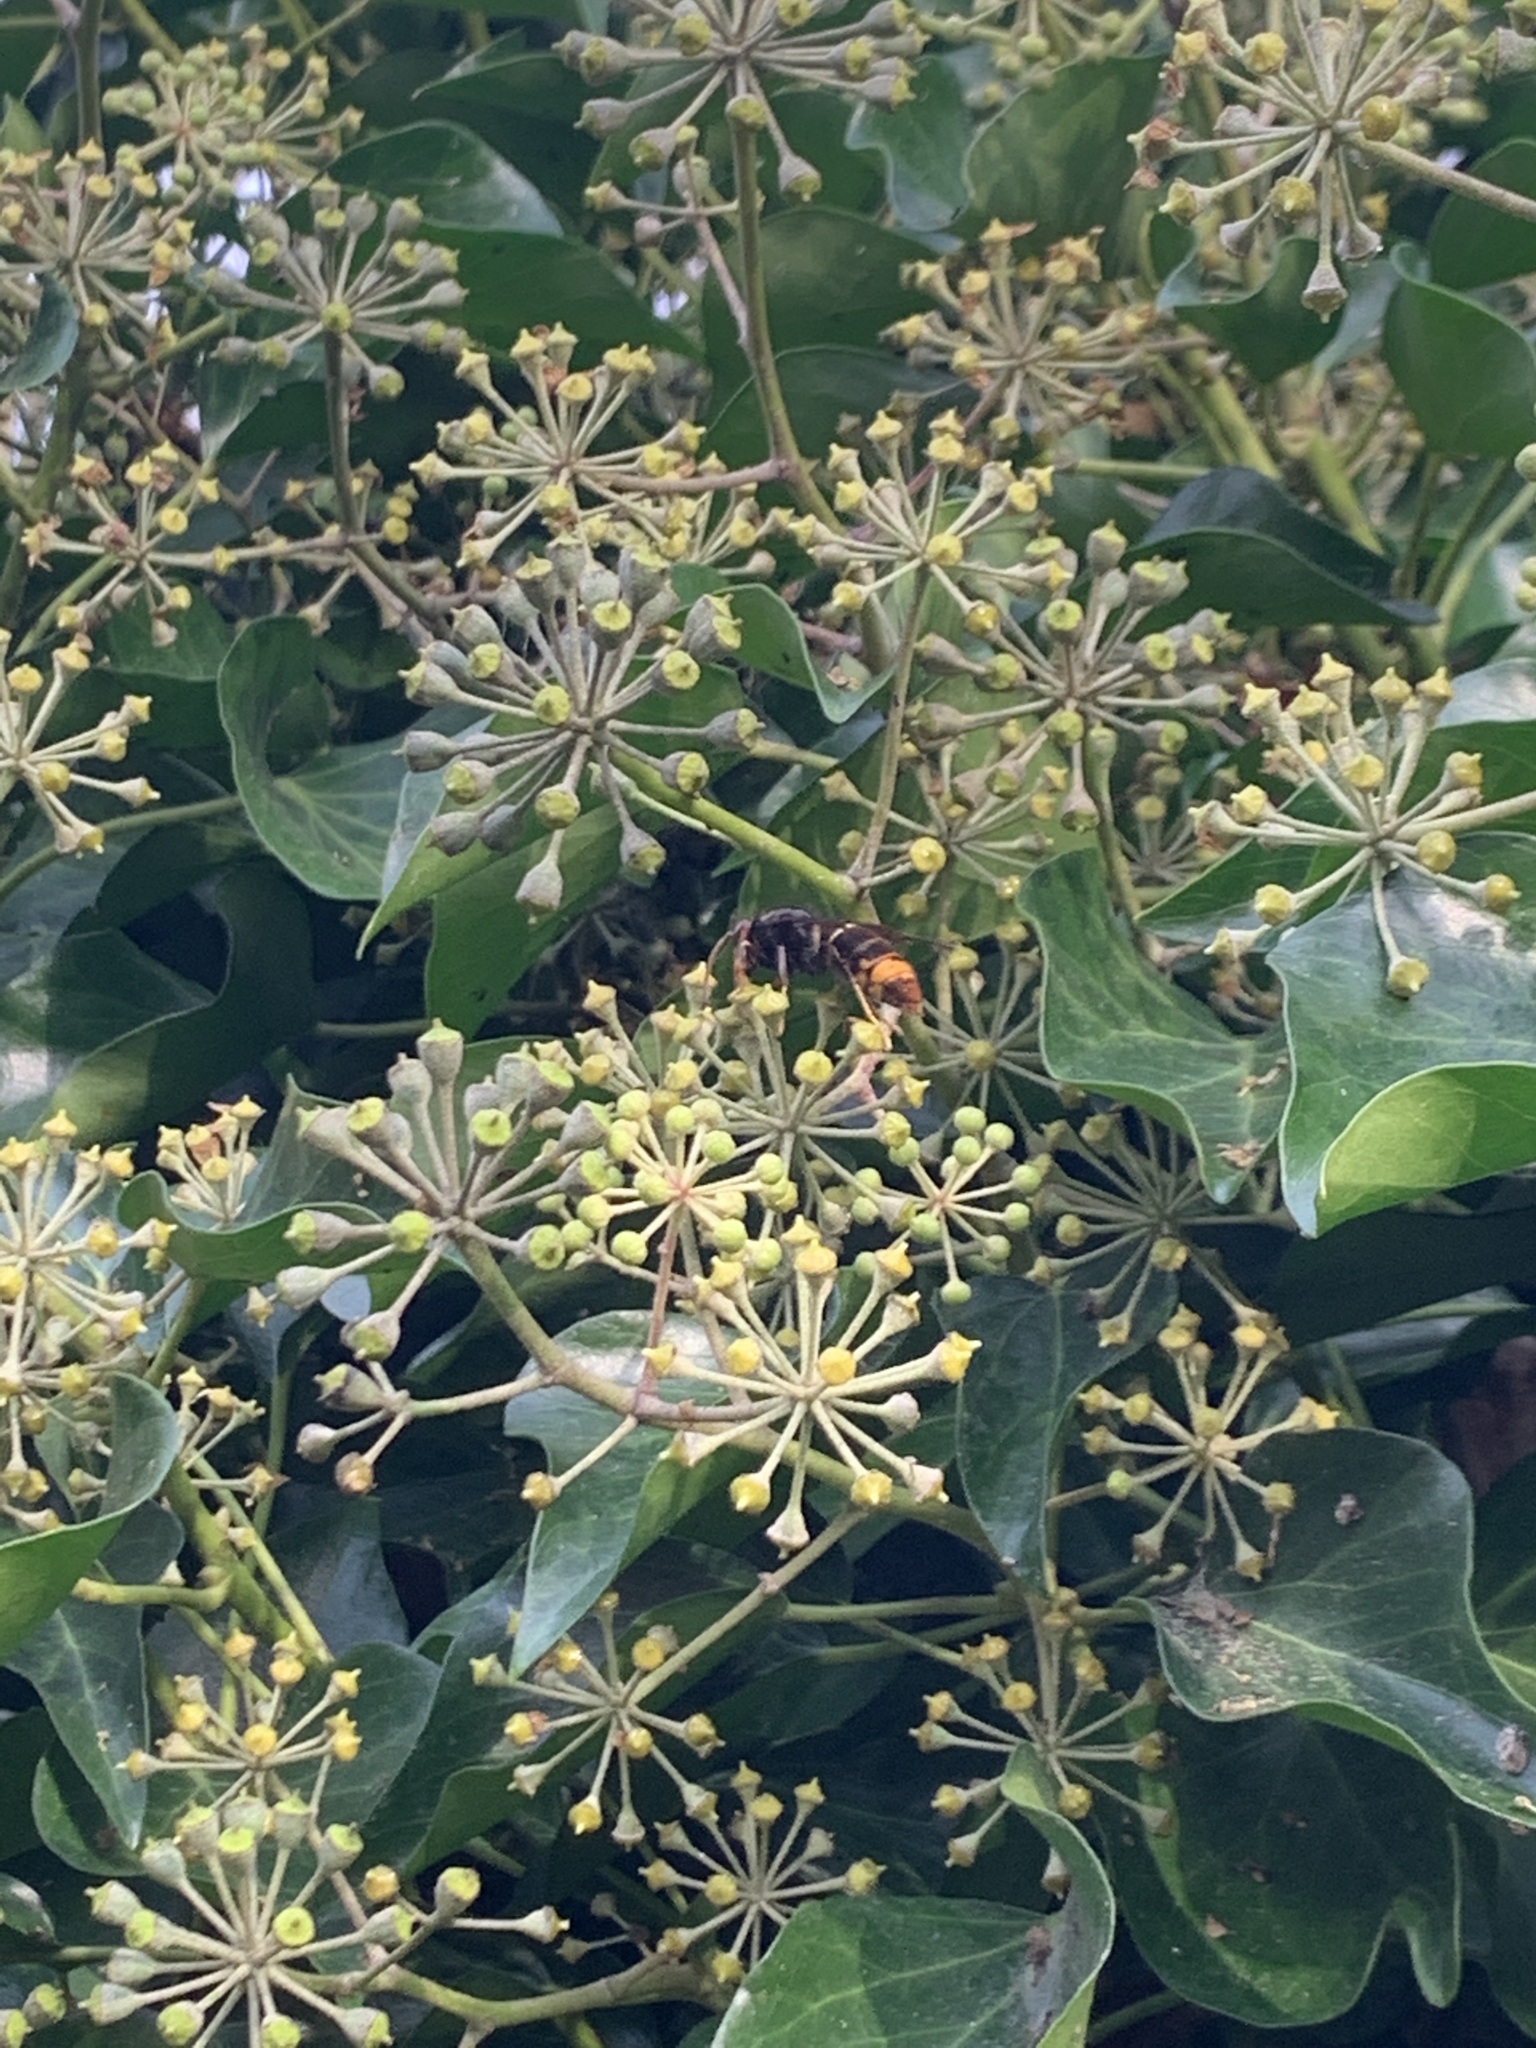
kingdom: Animalia
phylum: Arthropoda
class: Insecta
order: Hymenoptera
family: Vespidae
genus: Vespa
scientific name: Vespa velutina
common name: Asian hornet
